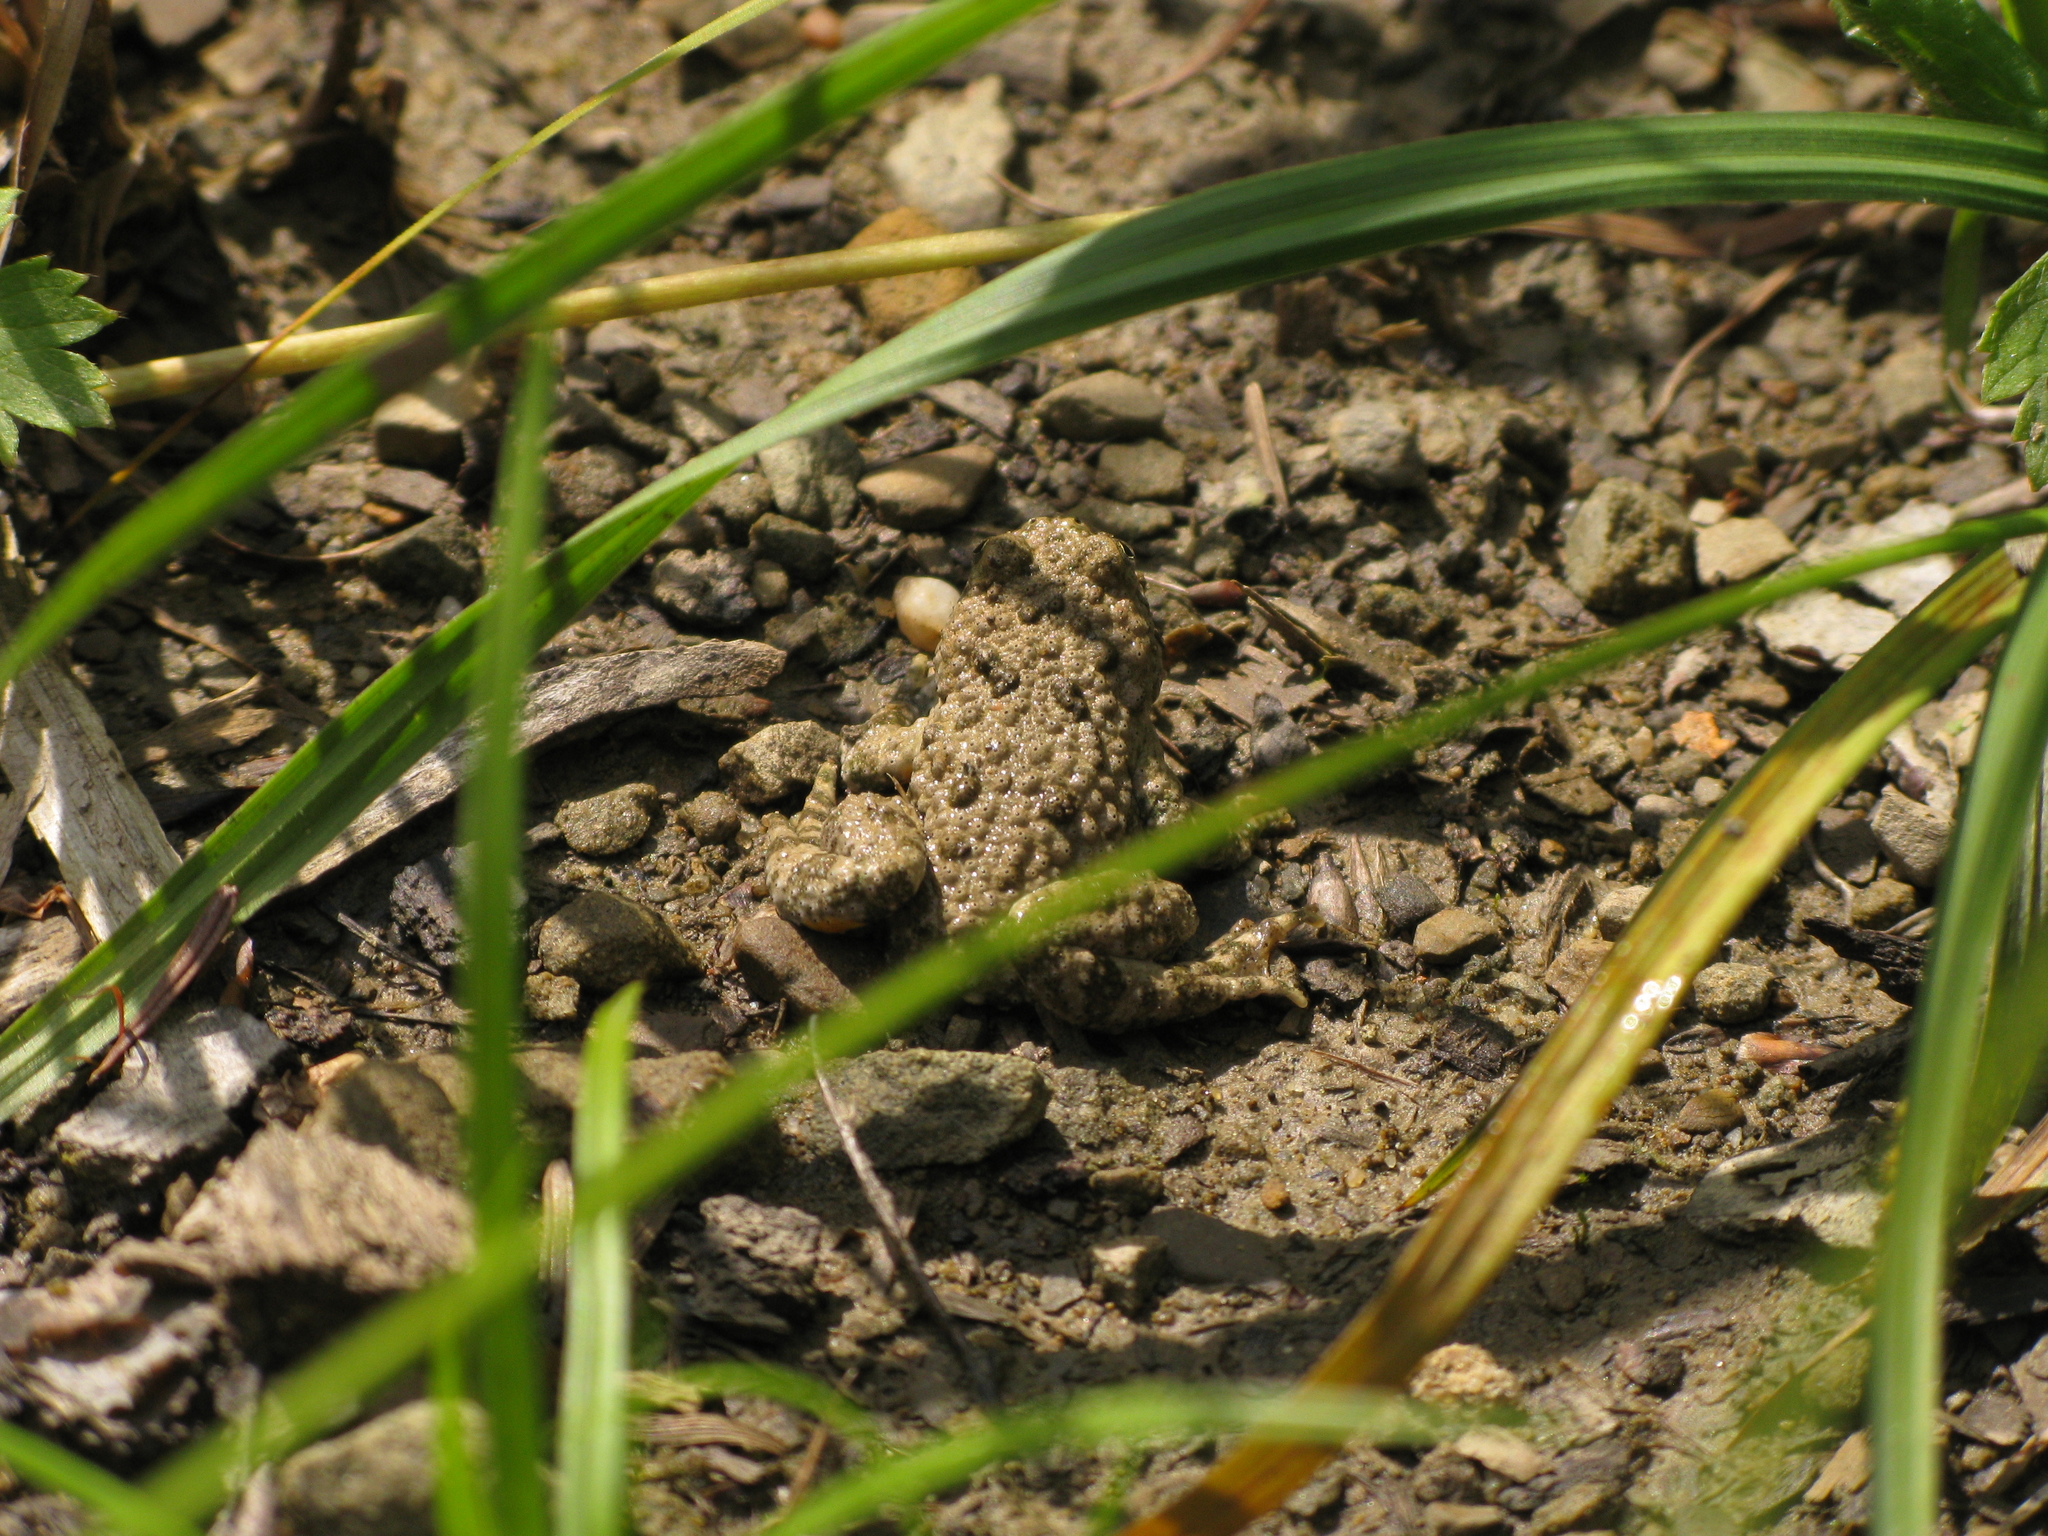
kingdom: Animalia
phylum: Chordata
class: Amphibia
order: Anura
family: Bombinatoridae
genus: Bombina
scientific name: Bombina variegata
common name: Yellow-bellied toad
